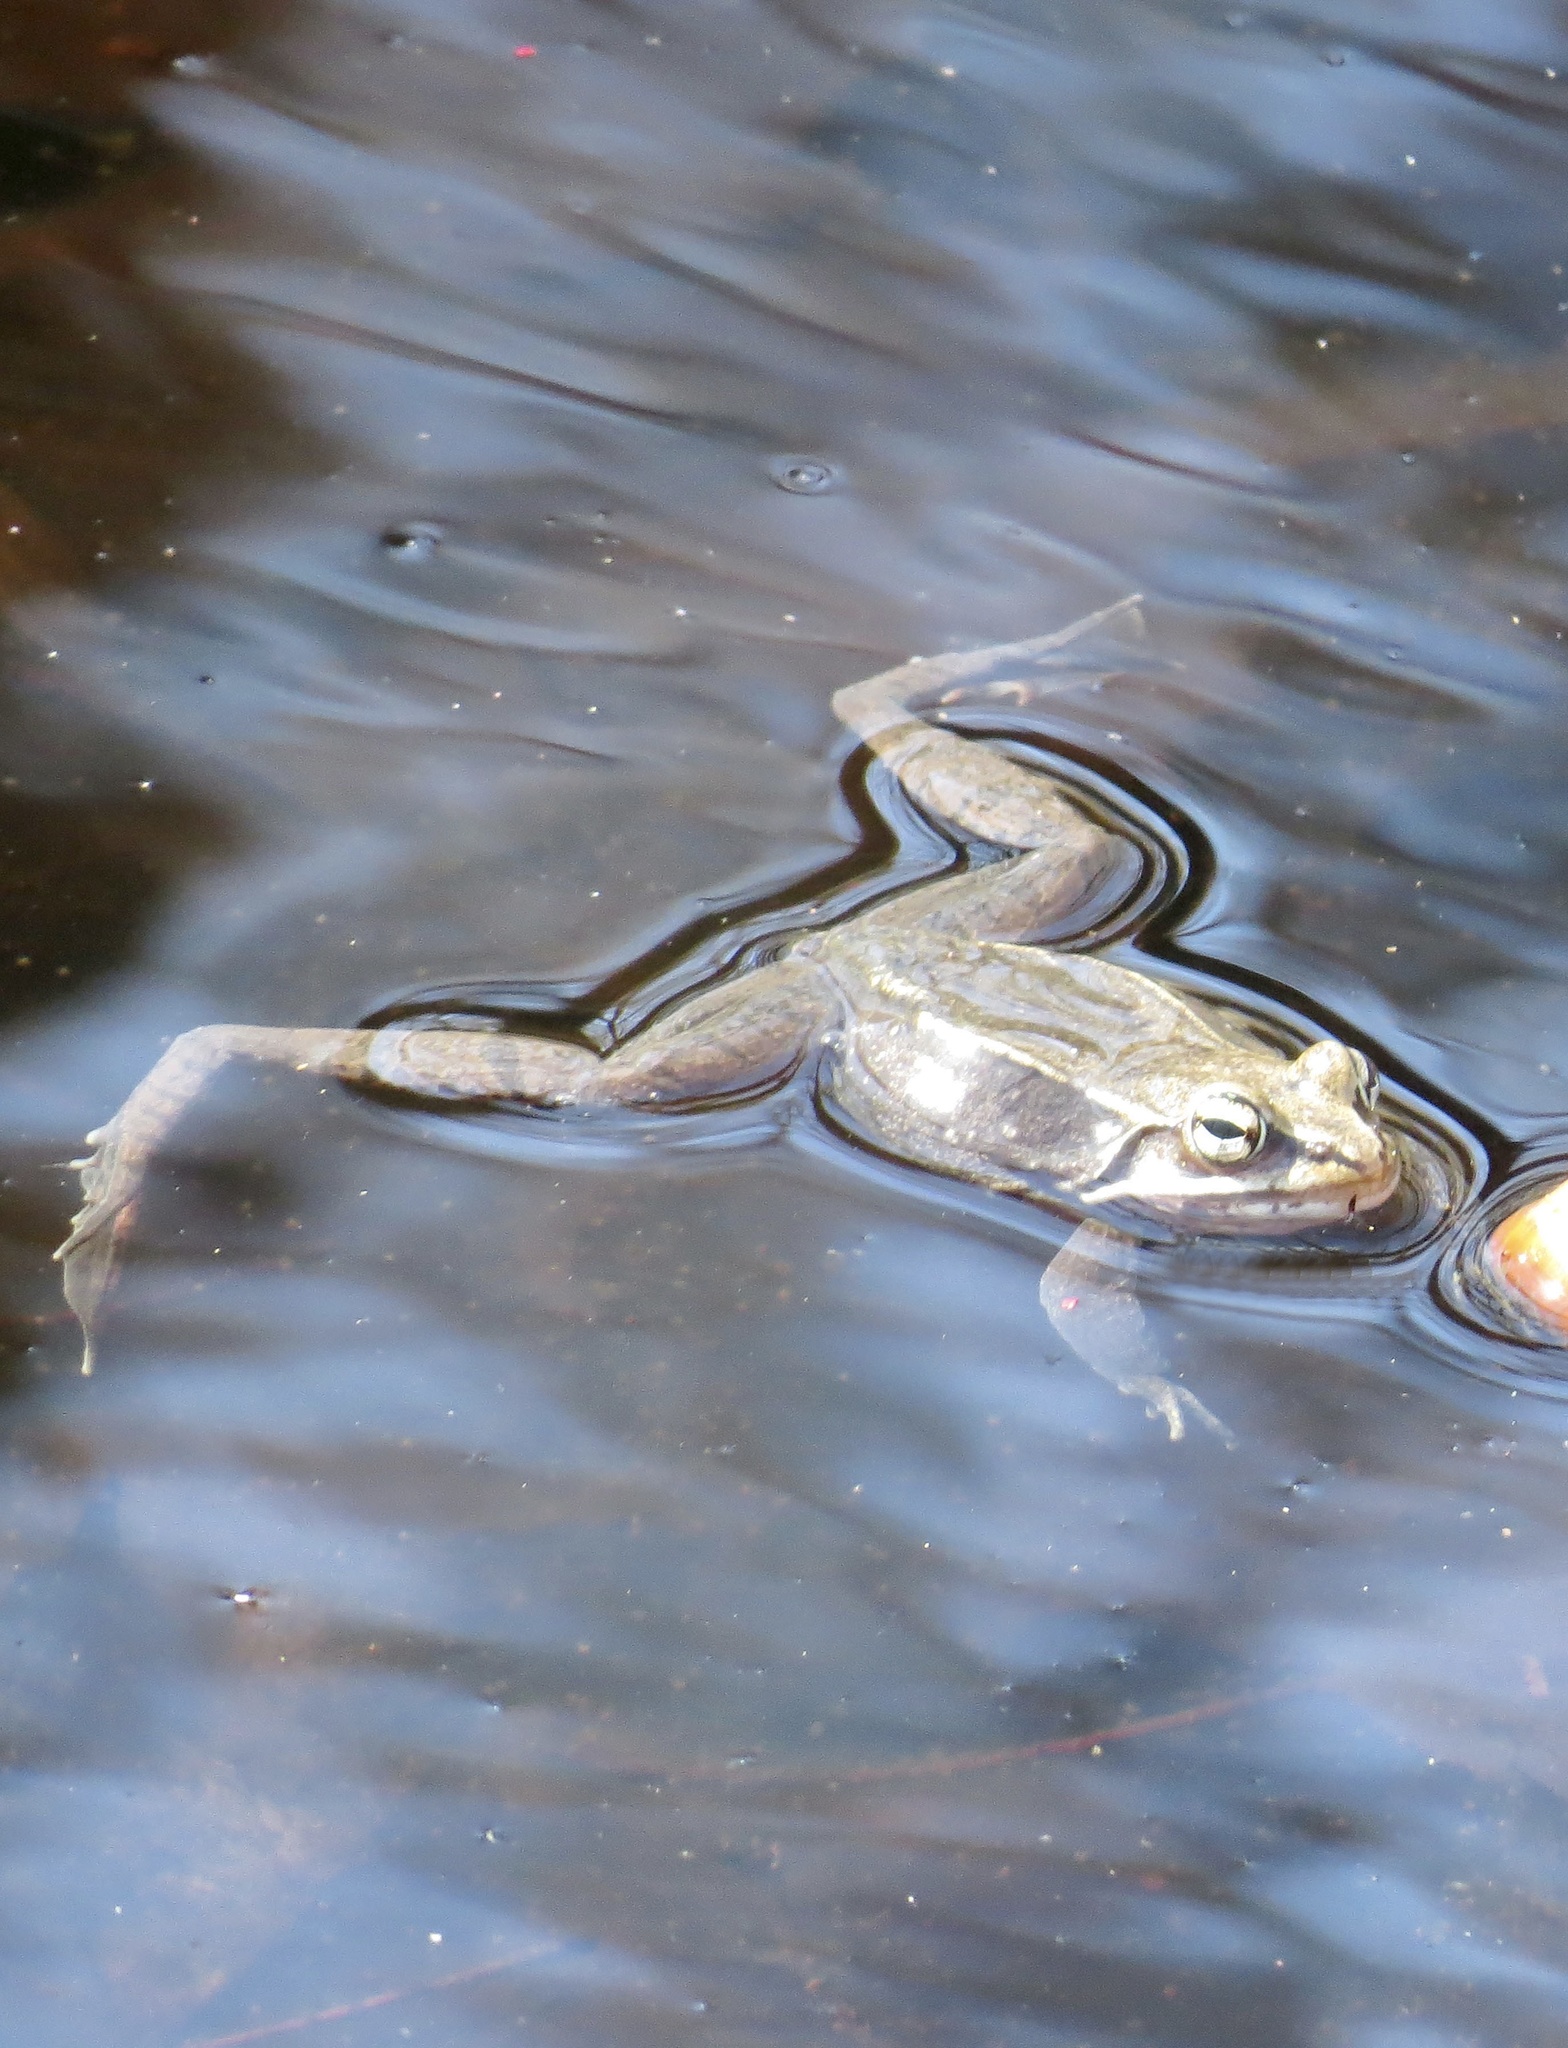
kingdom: Animalia
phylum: Chordata
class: Amphibia
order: Anura
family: Ranidae
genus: Lithobates
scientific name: Lithobates sylvaticus
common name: Wood frog
